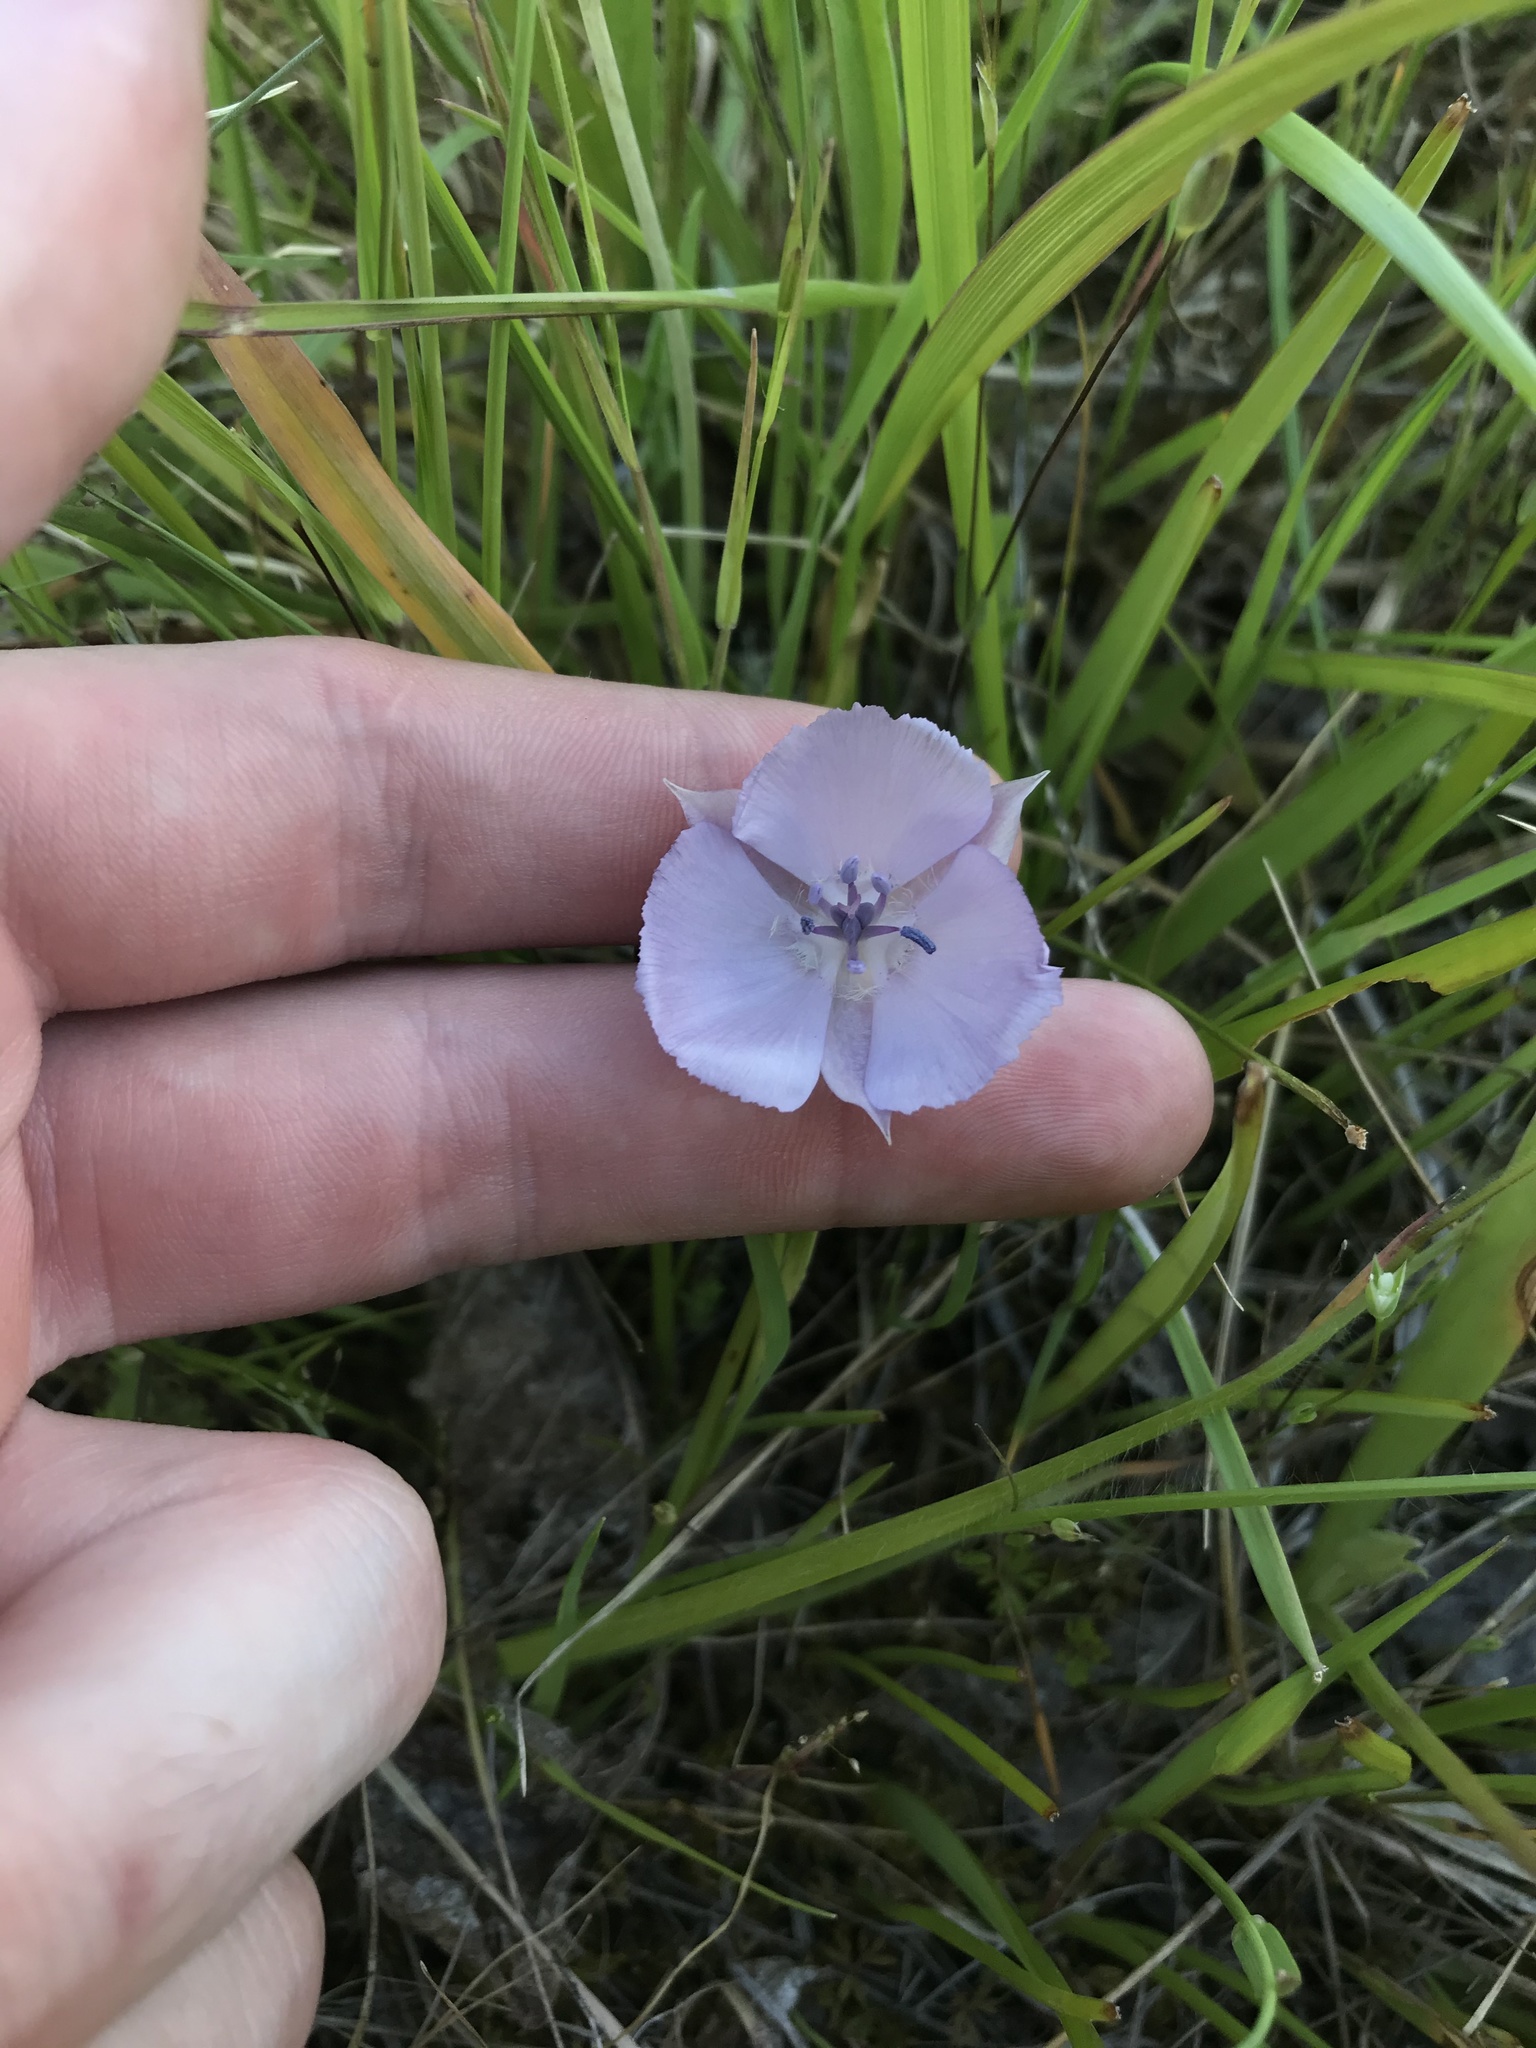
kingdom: Plantae
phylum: Tracheophyta
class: Liliopsida
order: Liliales
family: Liliaceae
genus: Calochortus
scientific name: Calochortus uniflorus
